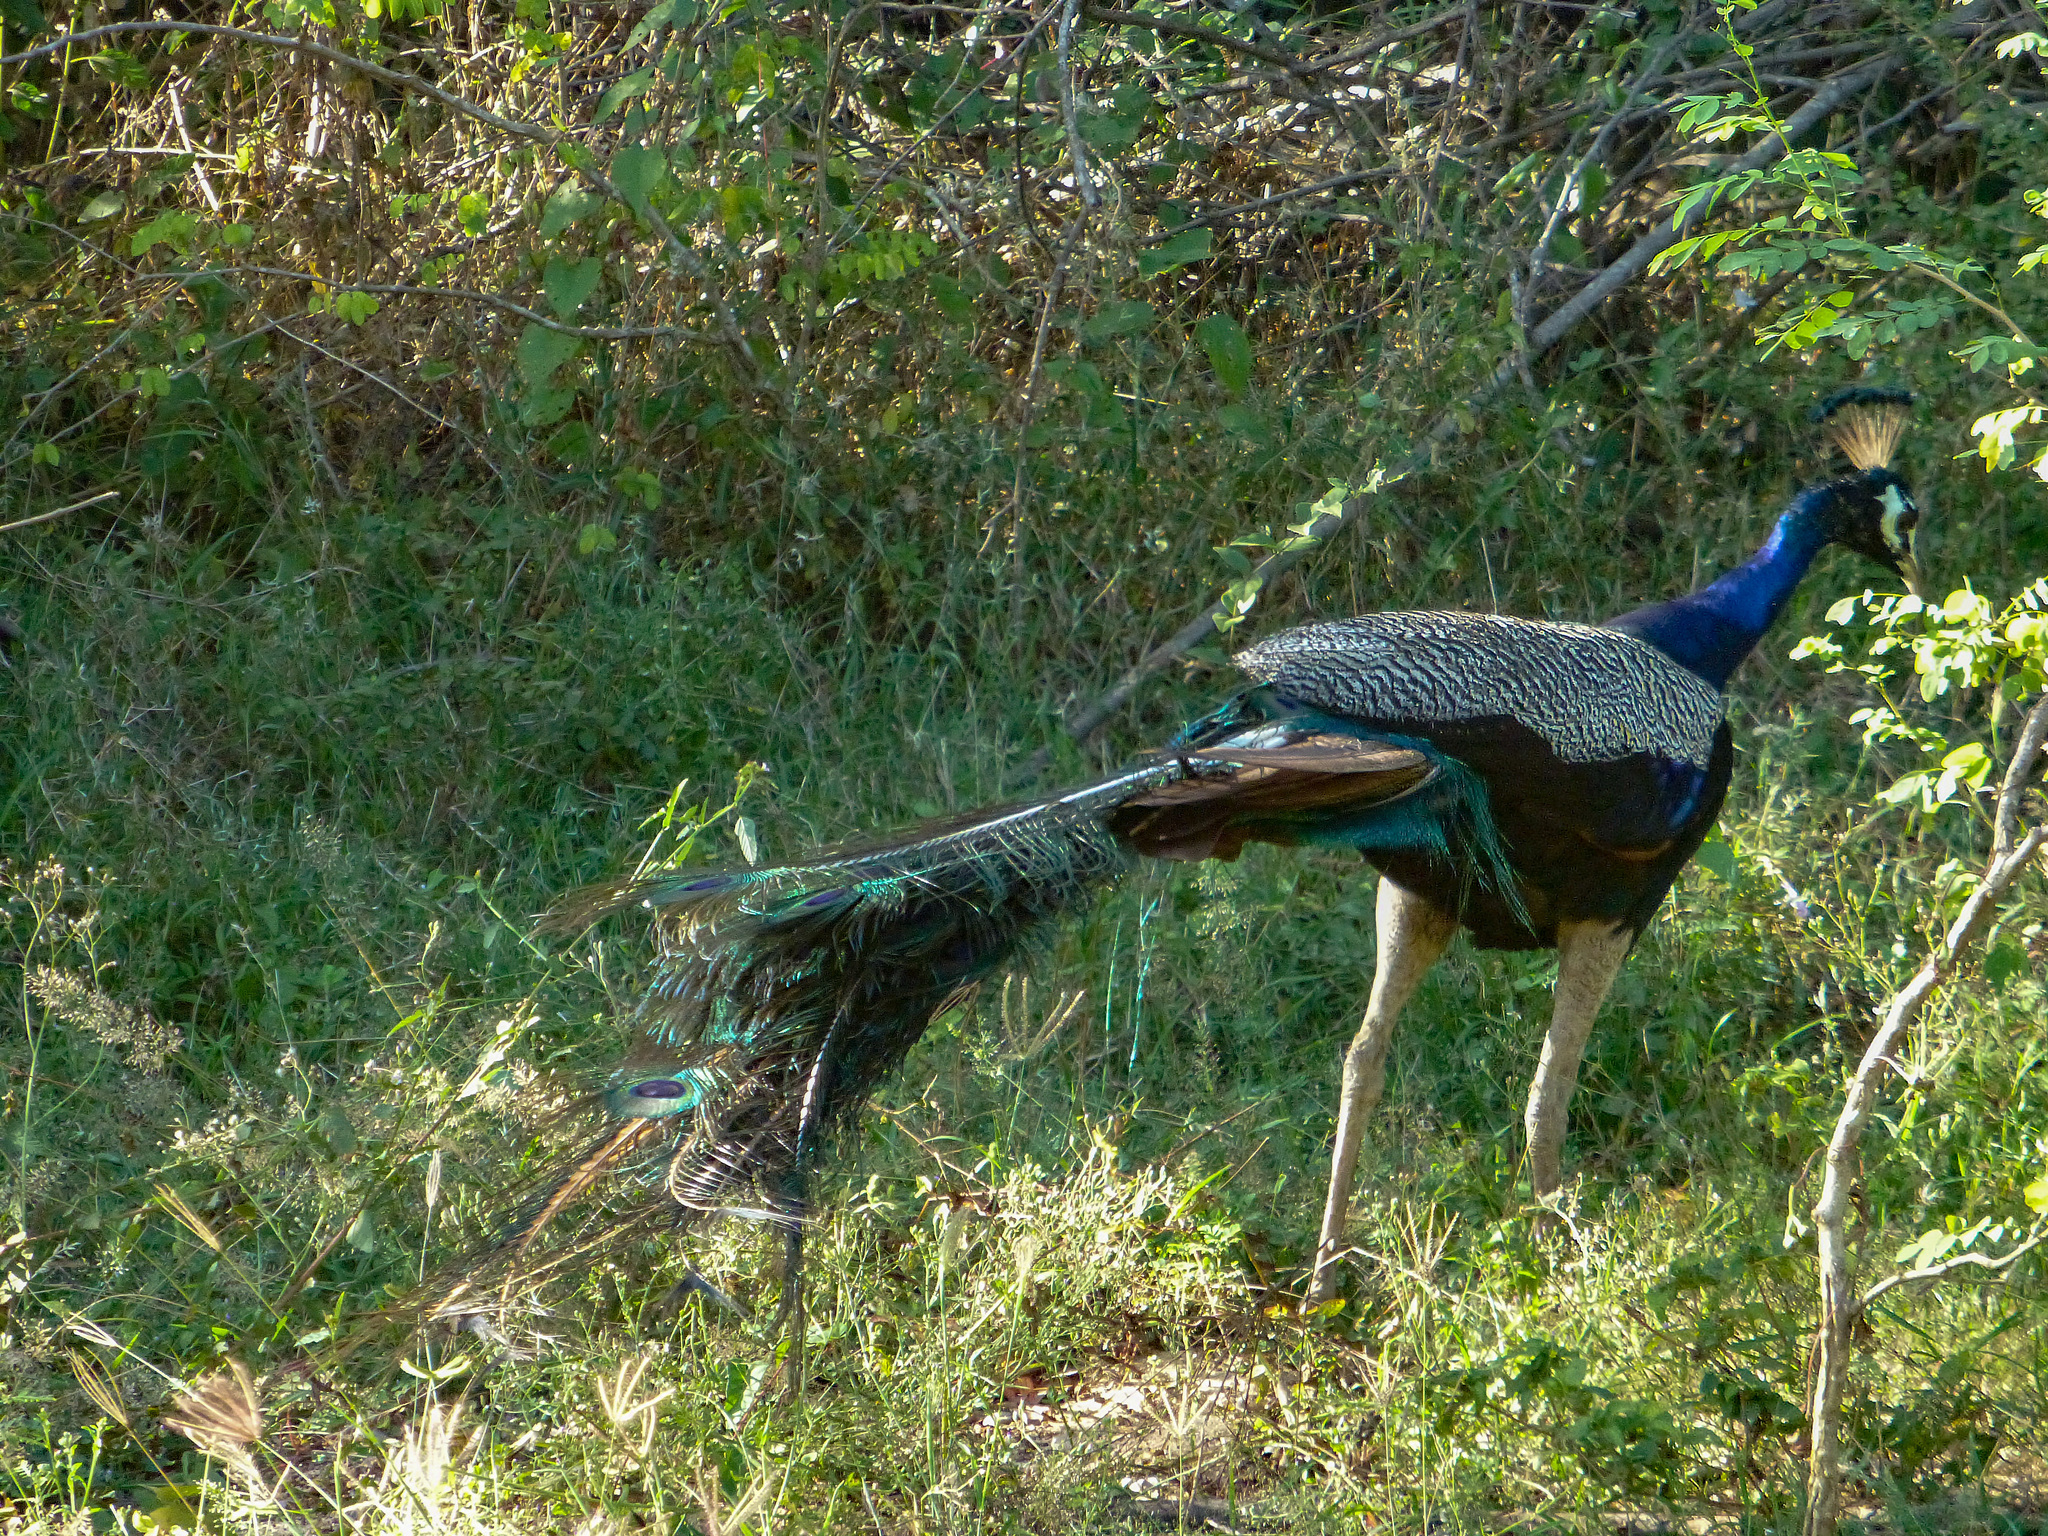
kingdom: Animalia
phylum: Chordata
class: Aves
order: Galliformes
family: Phasianidae
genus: Pavo
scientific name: Pavo cristatus
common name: Indian peafowl
